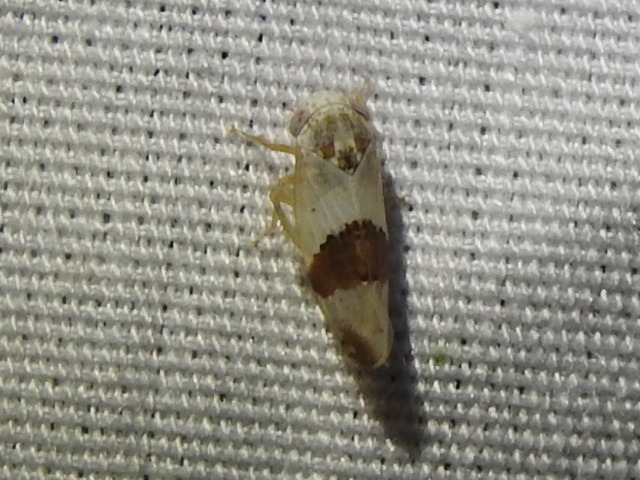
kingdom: Animalia
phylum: Arthropoda
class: Insecta
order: Hemiptera
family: Cicadellidae
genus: Norvellina
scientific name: Norvellina seminuda
